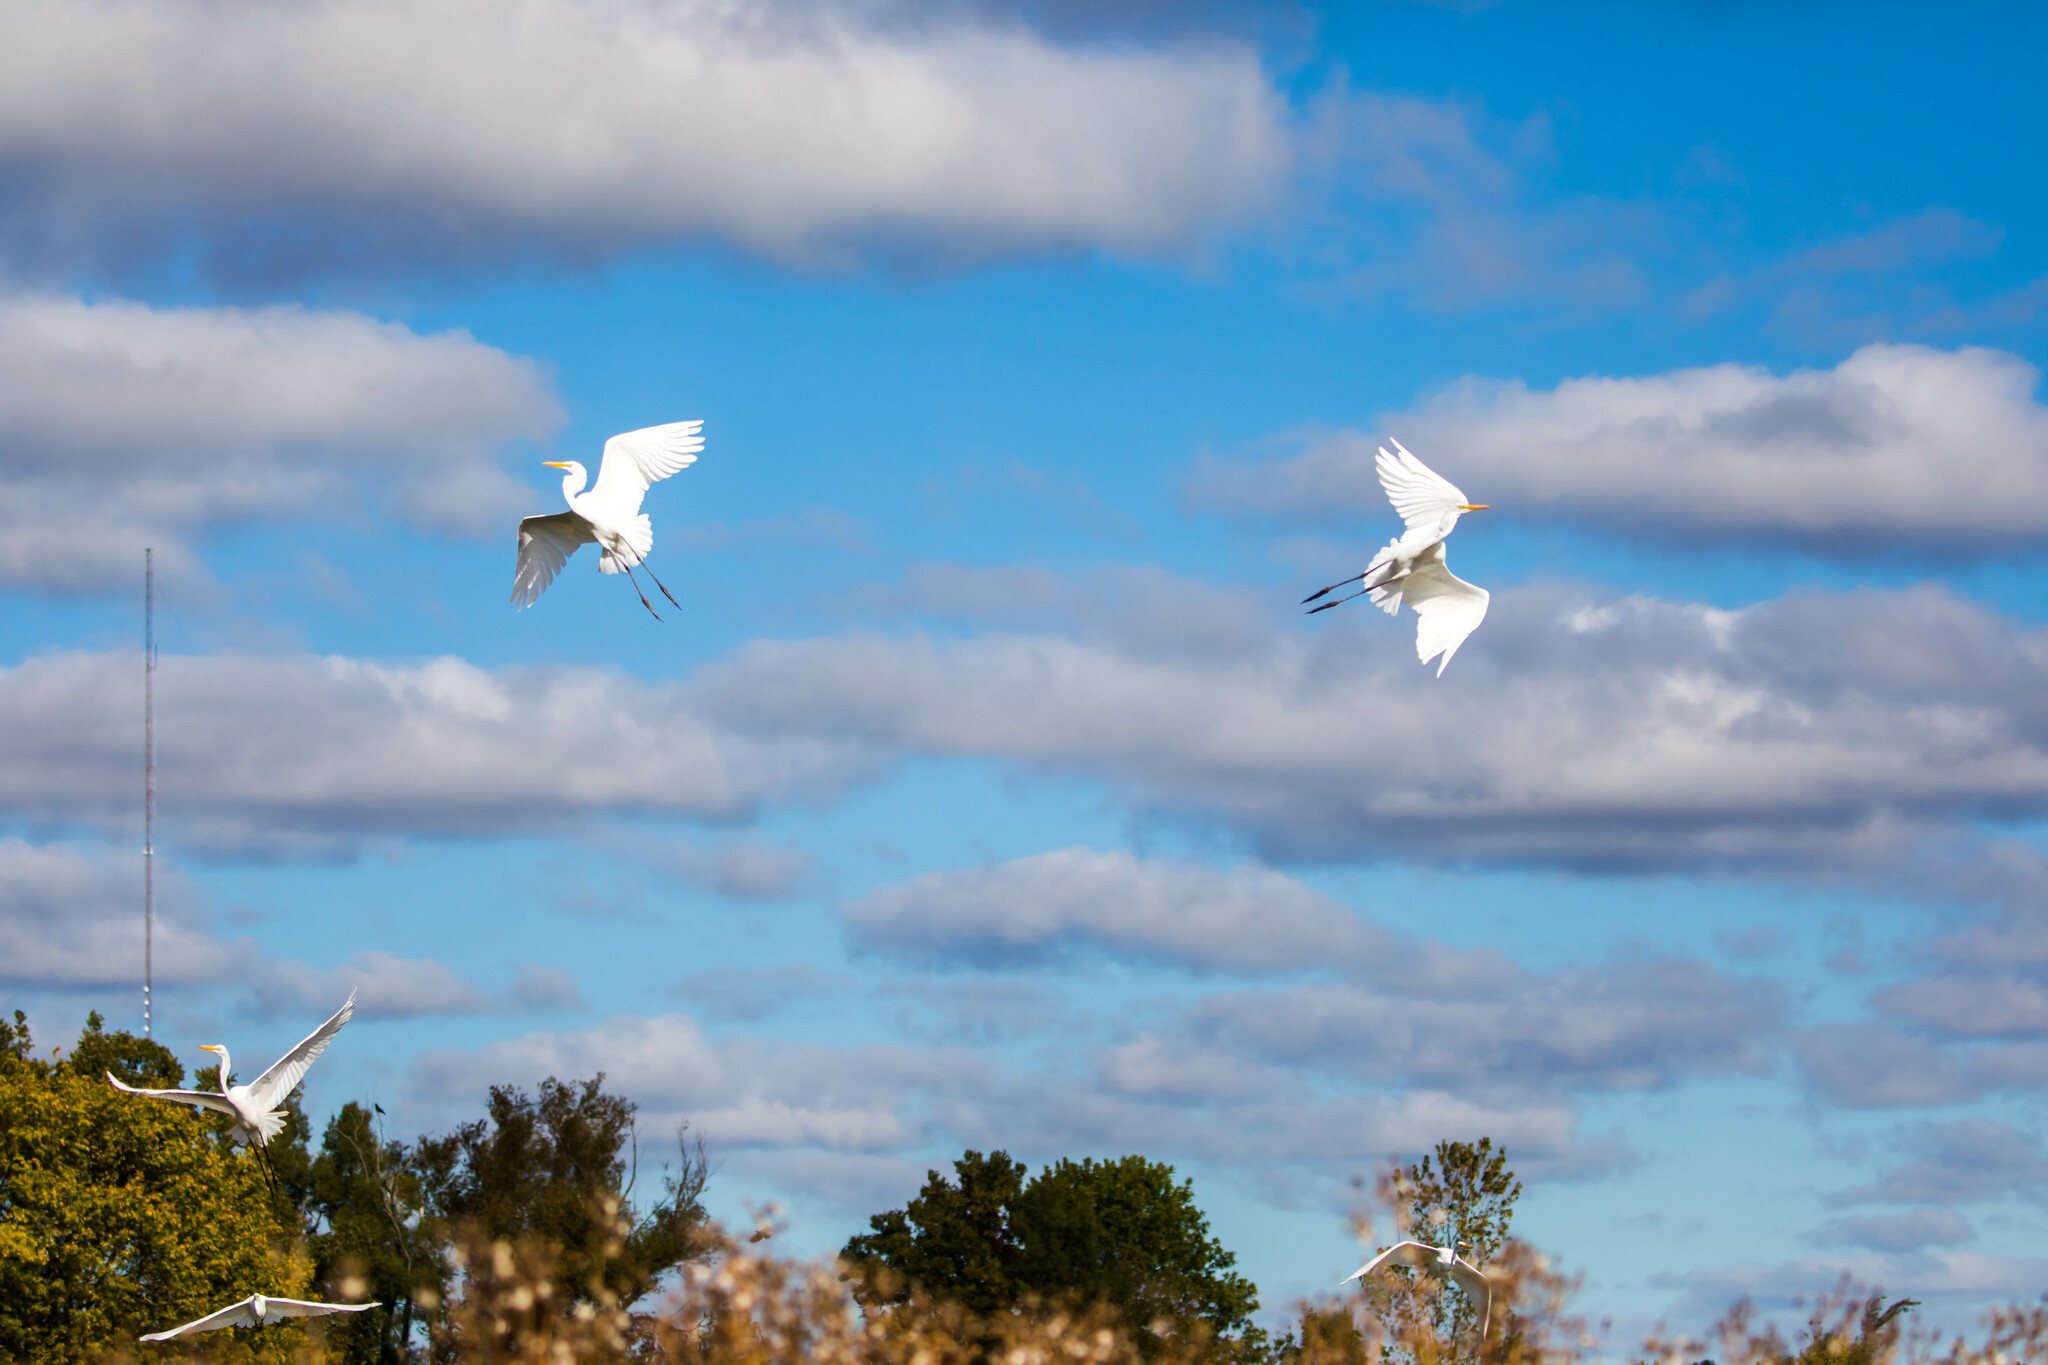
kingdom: Animalia
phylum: Chordata
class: Aves
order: Pelecaniformes
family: Ardeidae
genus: Ardea
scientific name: Ardea alba
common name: Great egret
